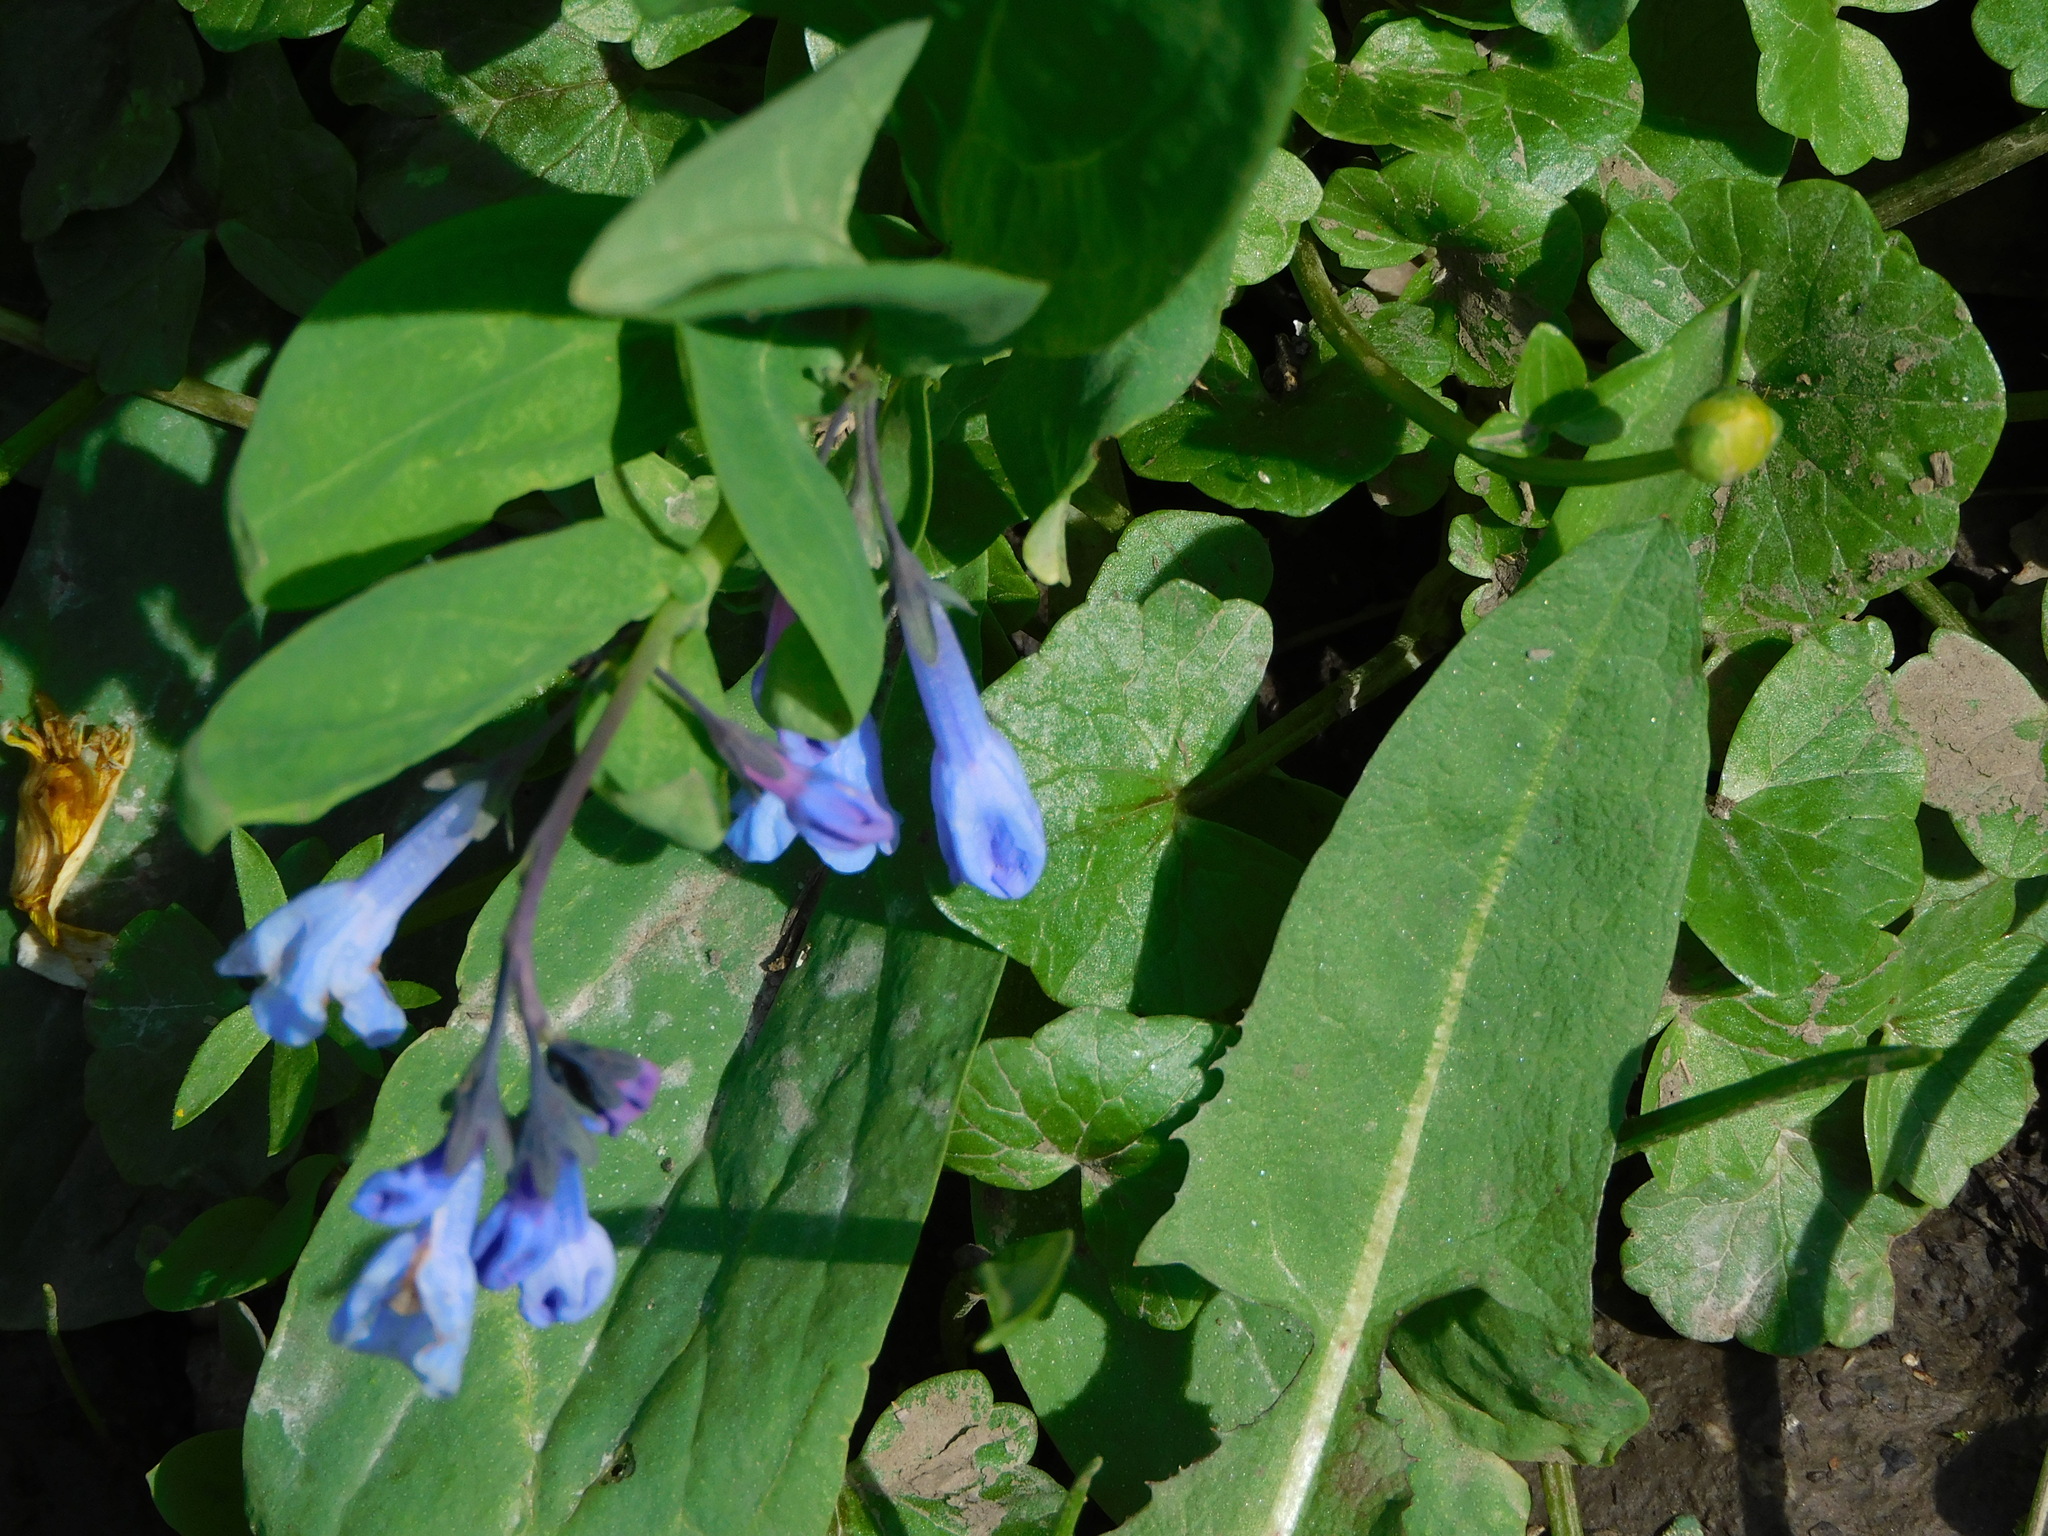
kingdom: Plantae
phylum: Tracheophyta
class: Magnoliopsida
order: Boraginales
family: Boraginaceae
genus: Mertensia
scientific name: Mertensia virginica
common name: Virginia bluebells
